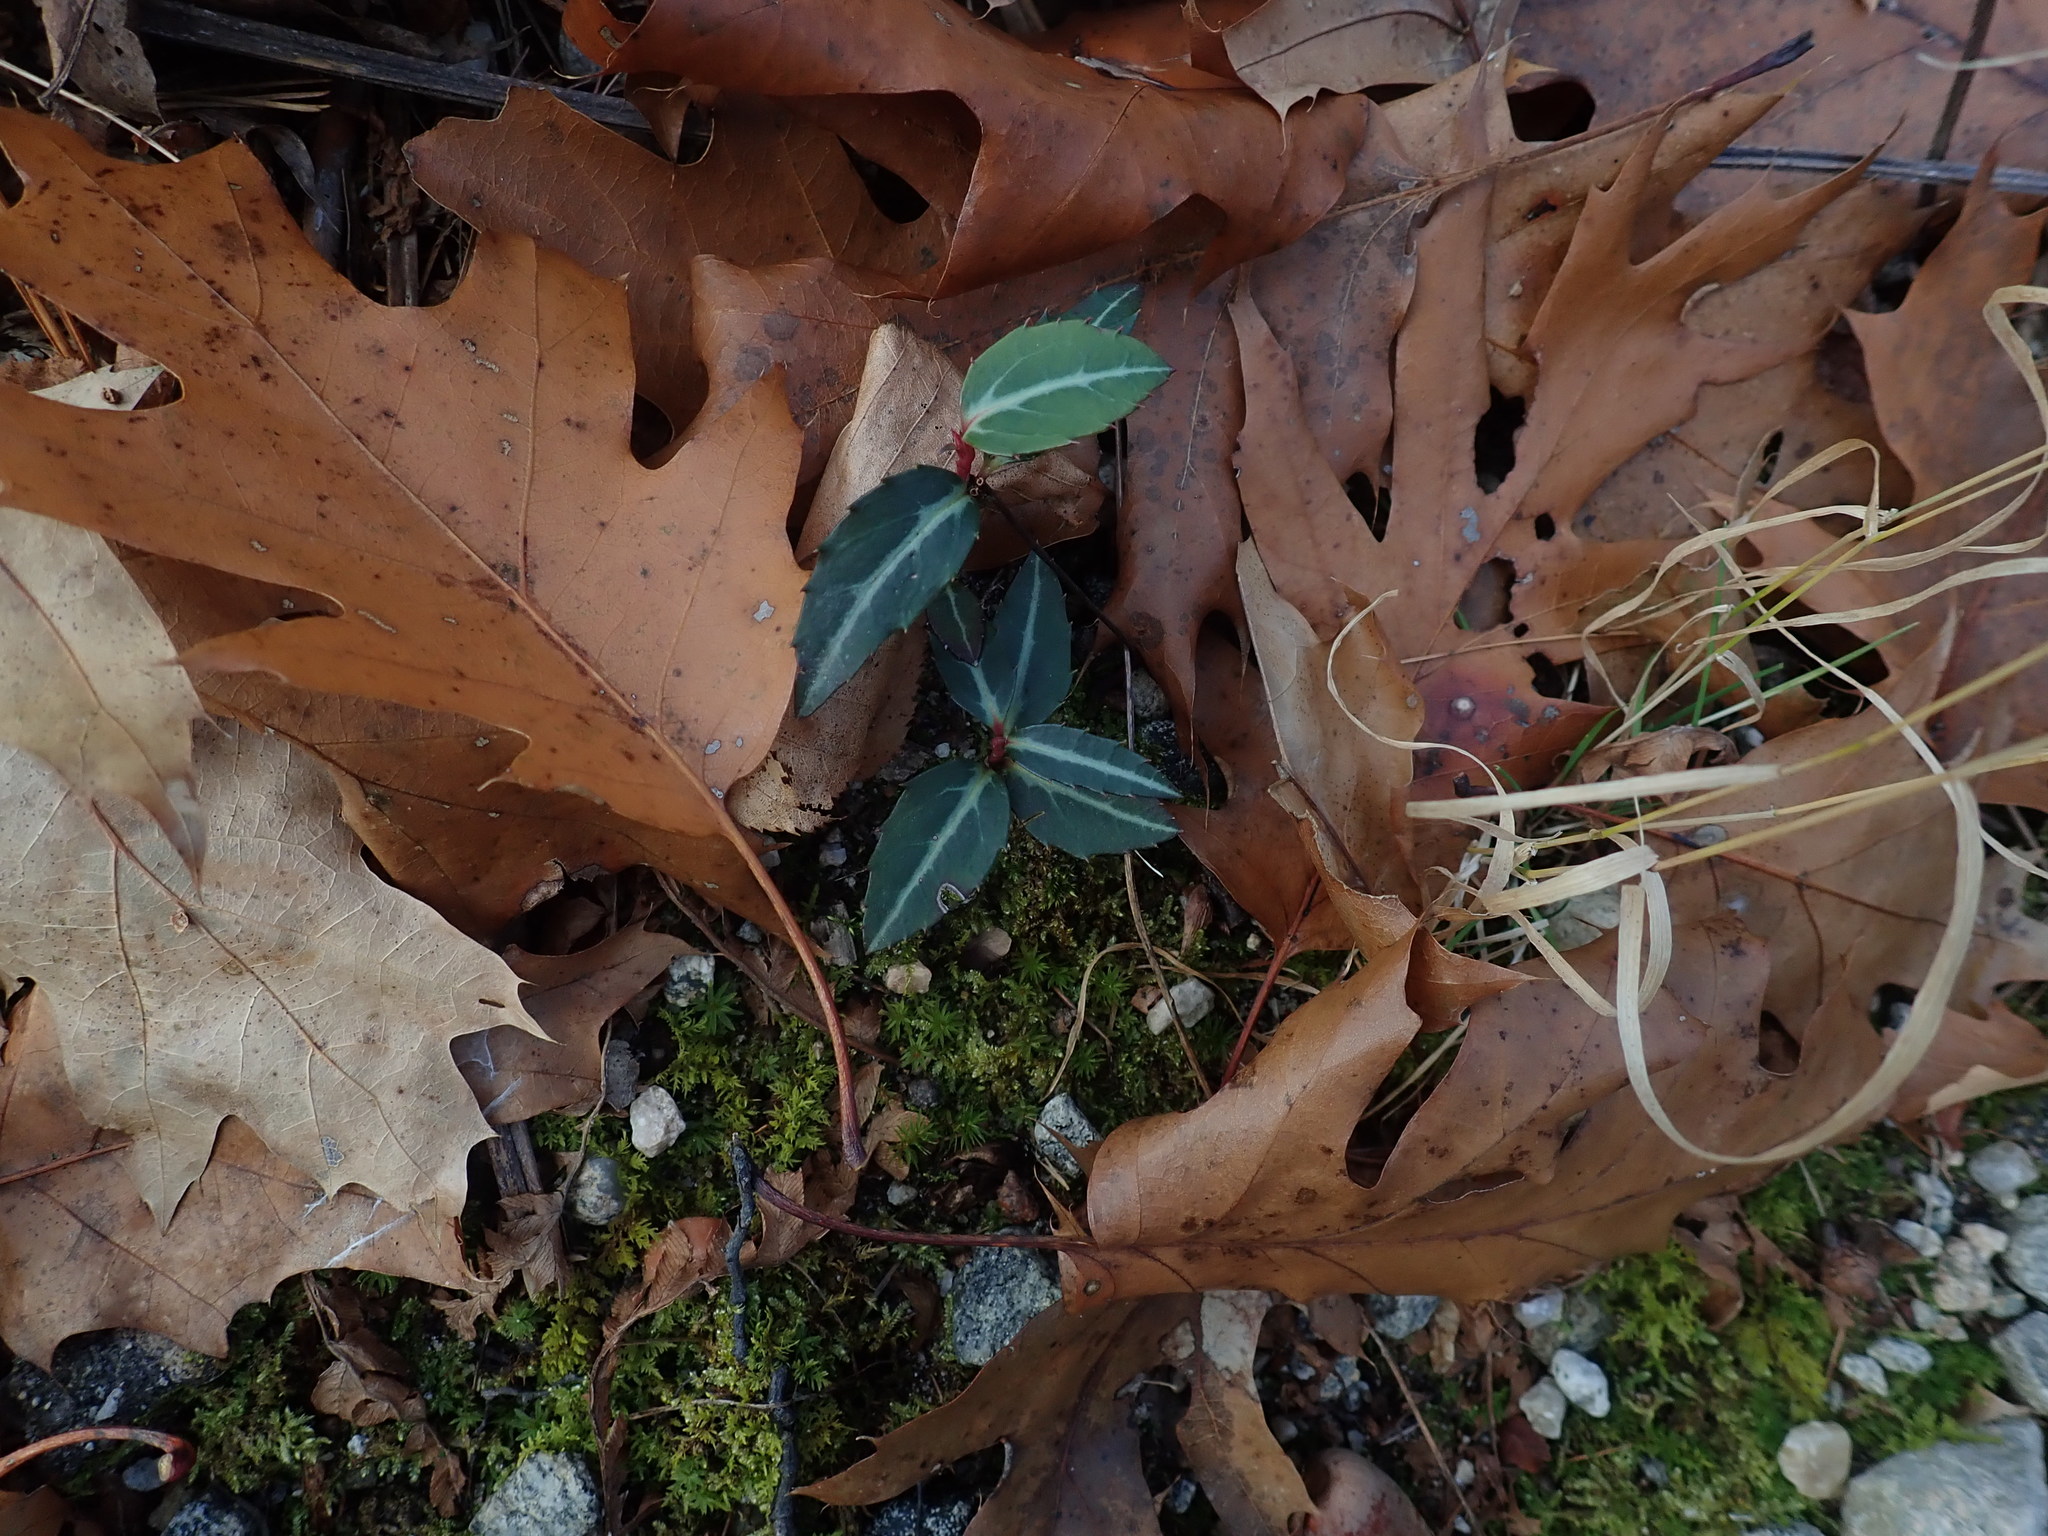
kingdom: Plantae
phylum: Tracheophyta
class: Magnoliopsida
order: Ericales
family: Ericaceae
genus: Chimaphila
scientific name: Chimaphila maculata
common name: Spotted pipsissewa
